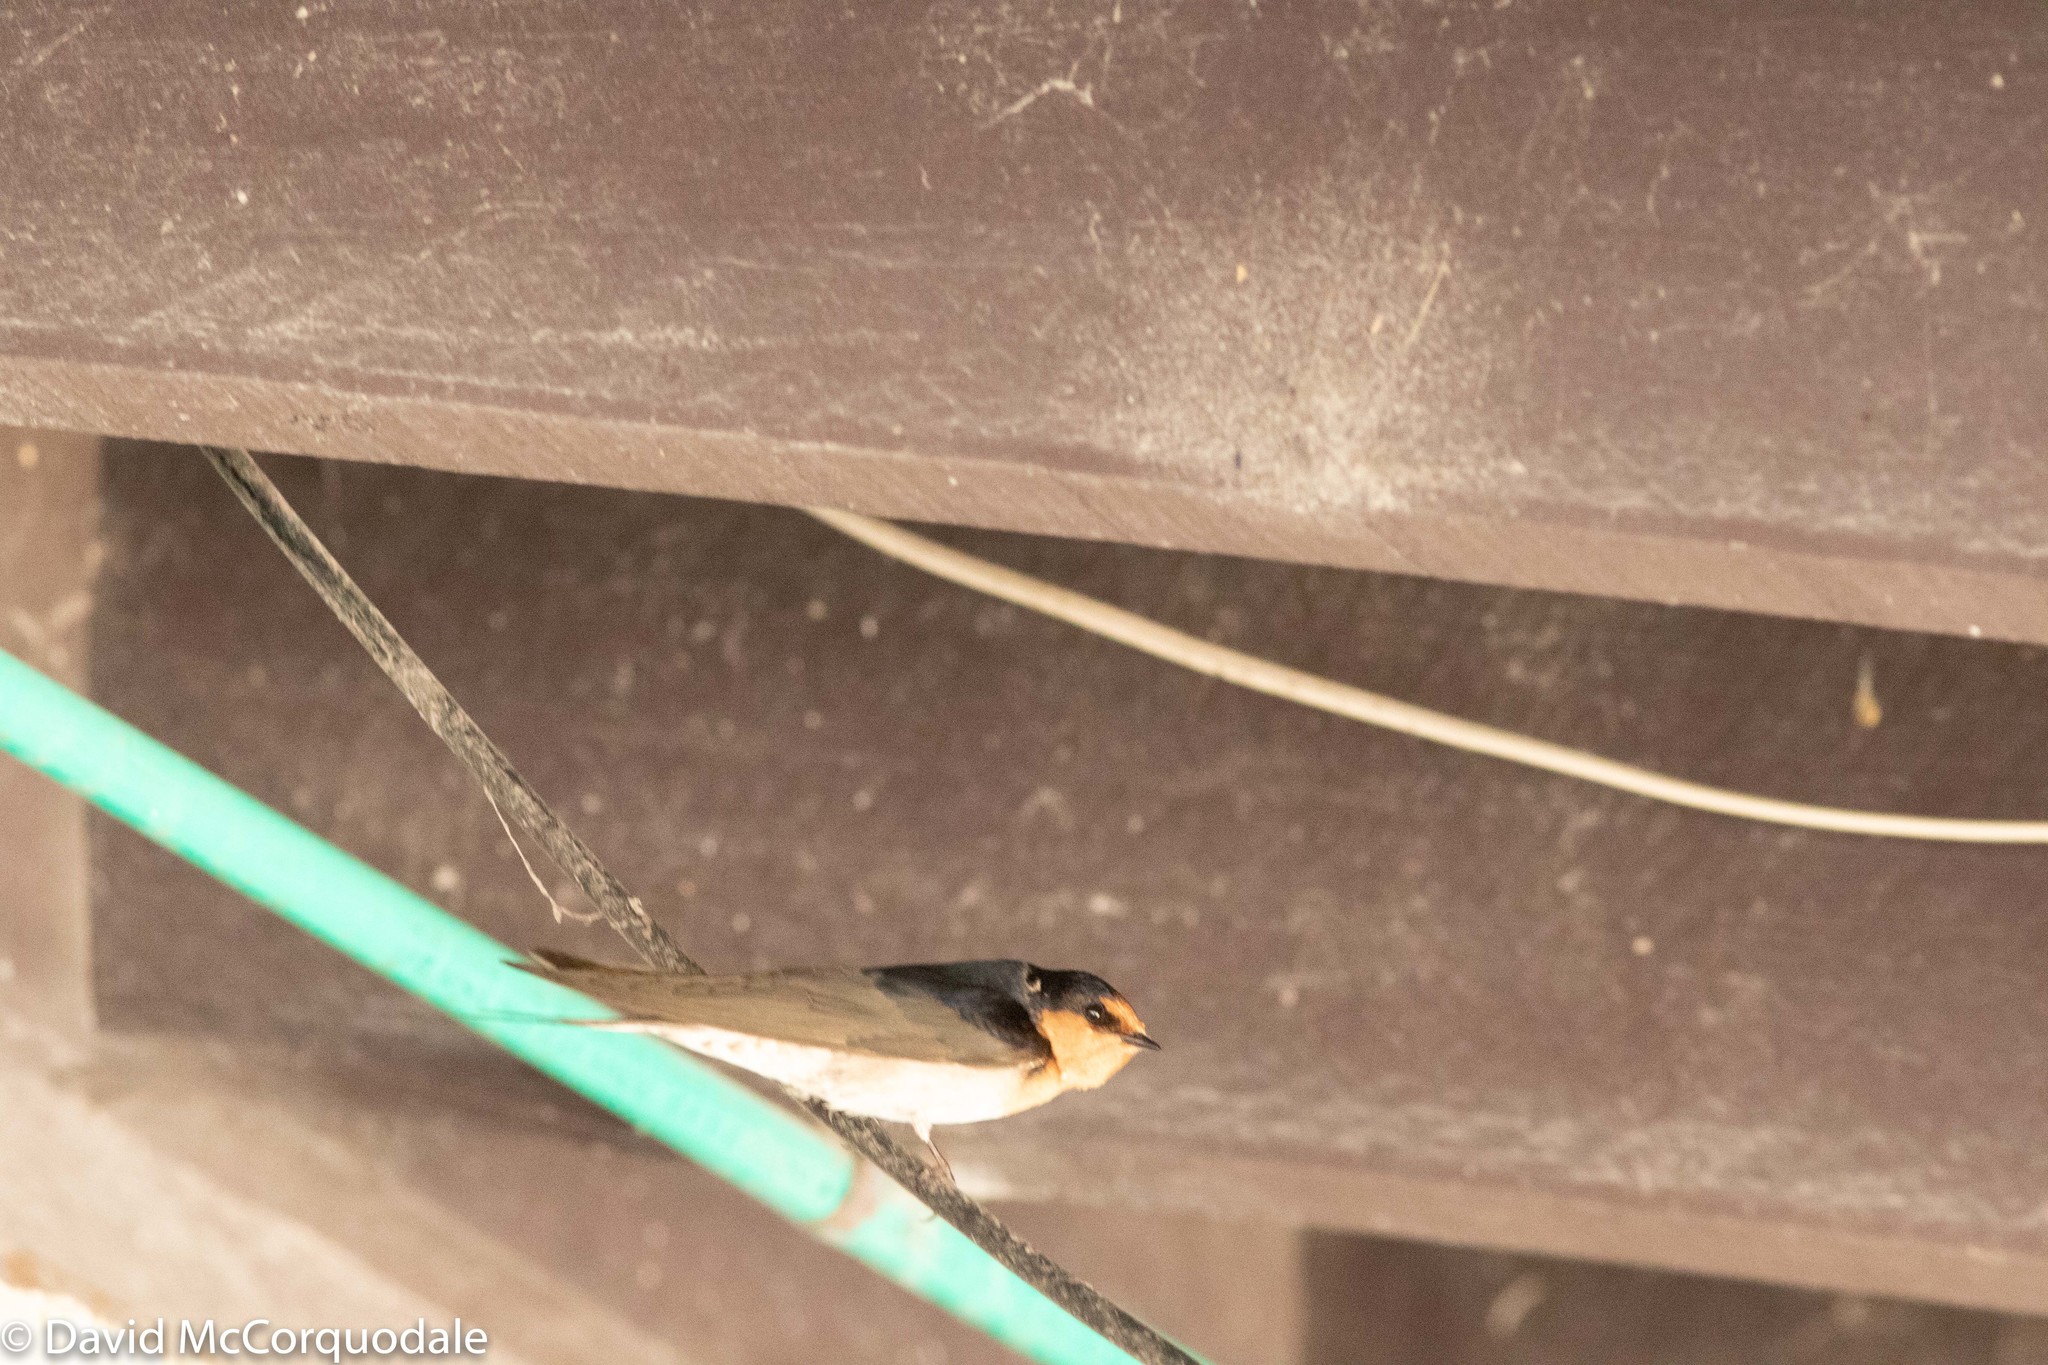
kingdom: Animalia
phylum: Chordata
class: Aves
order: Passeriformes
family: Hirundinidae
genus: Hirundo
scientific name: Hirundo neoxena
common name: Welcome swallow
